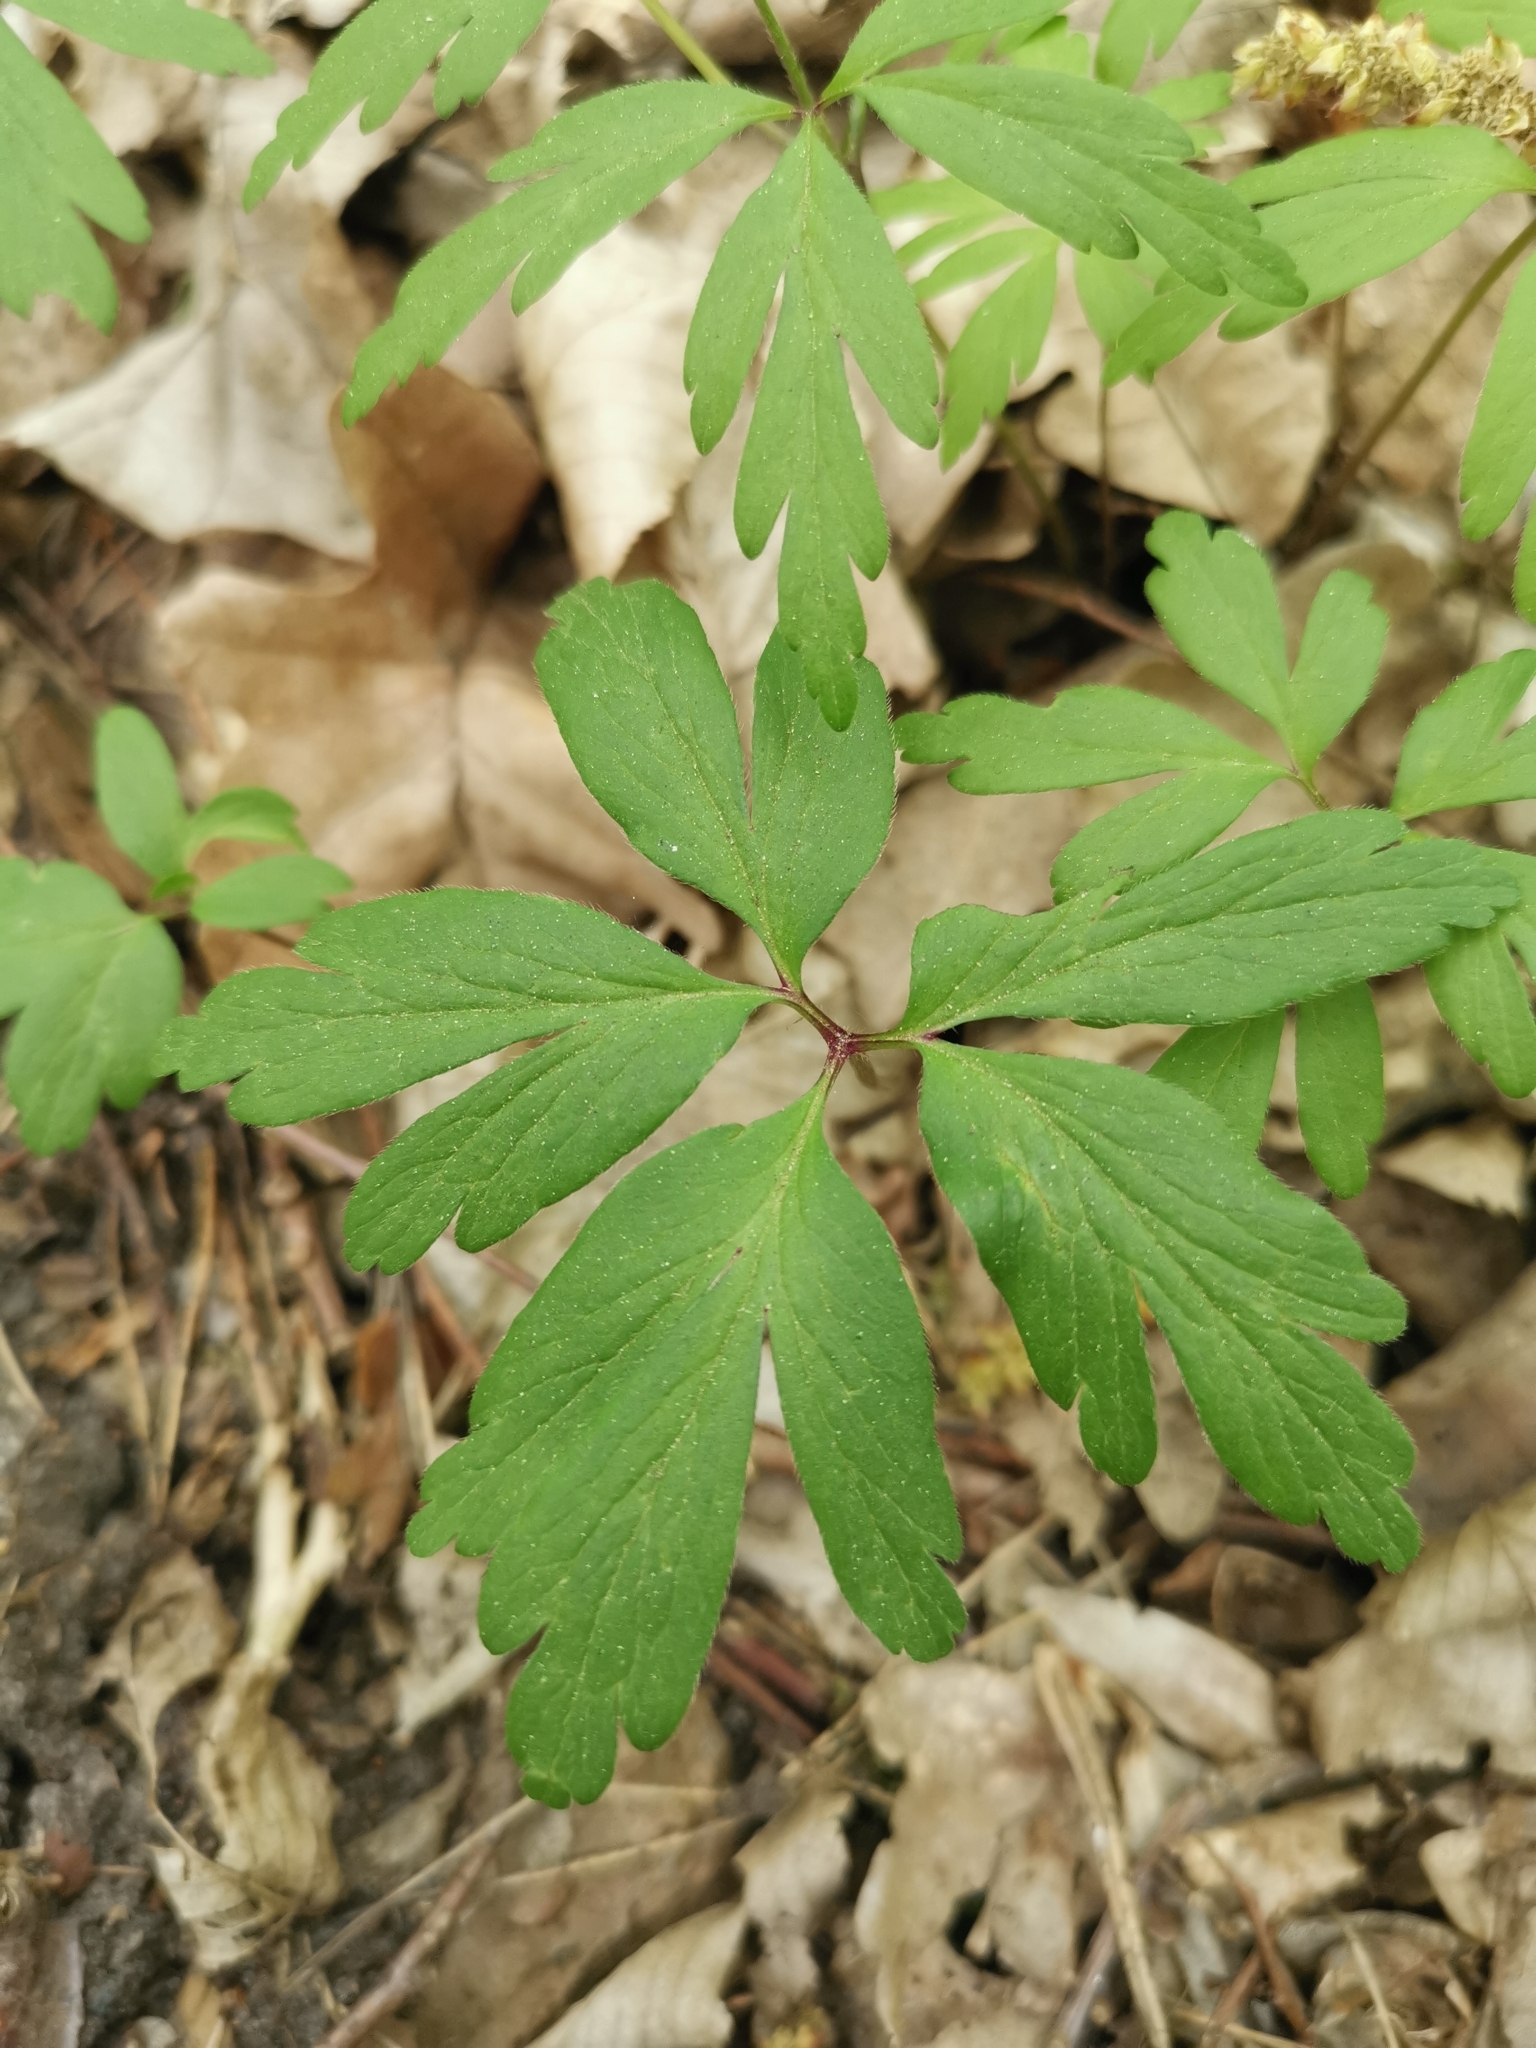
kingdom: Plantae
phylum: Tracheophyta
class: Magnoliopsida
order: Ranunculales
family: Ranunculaceae
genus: Anemone
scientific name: Anemone nemorosa
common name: Wood anemone
